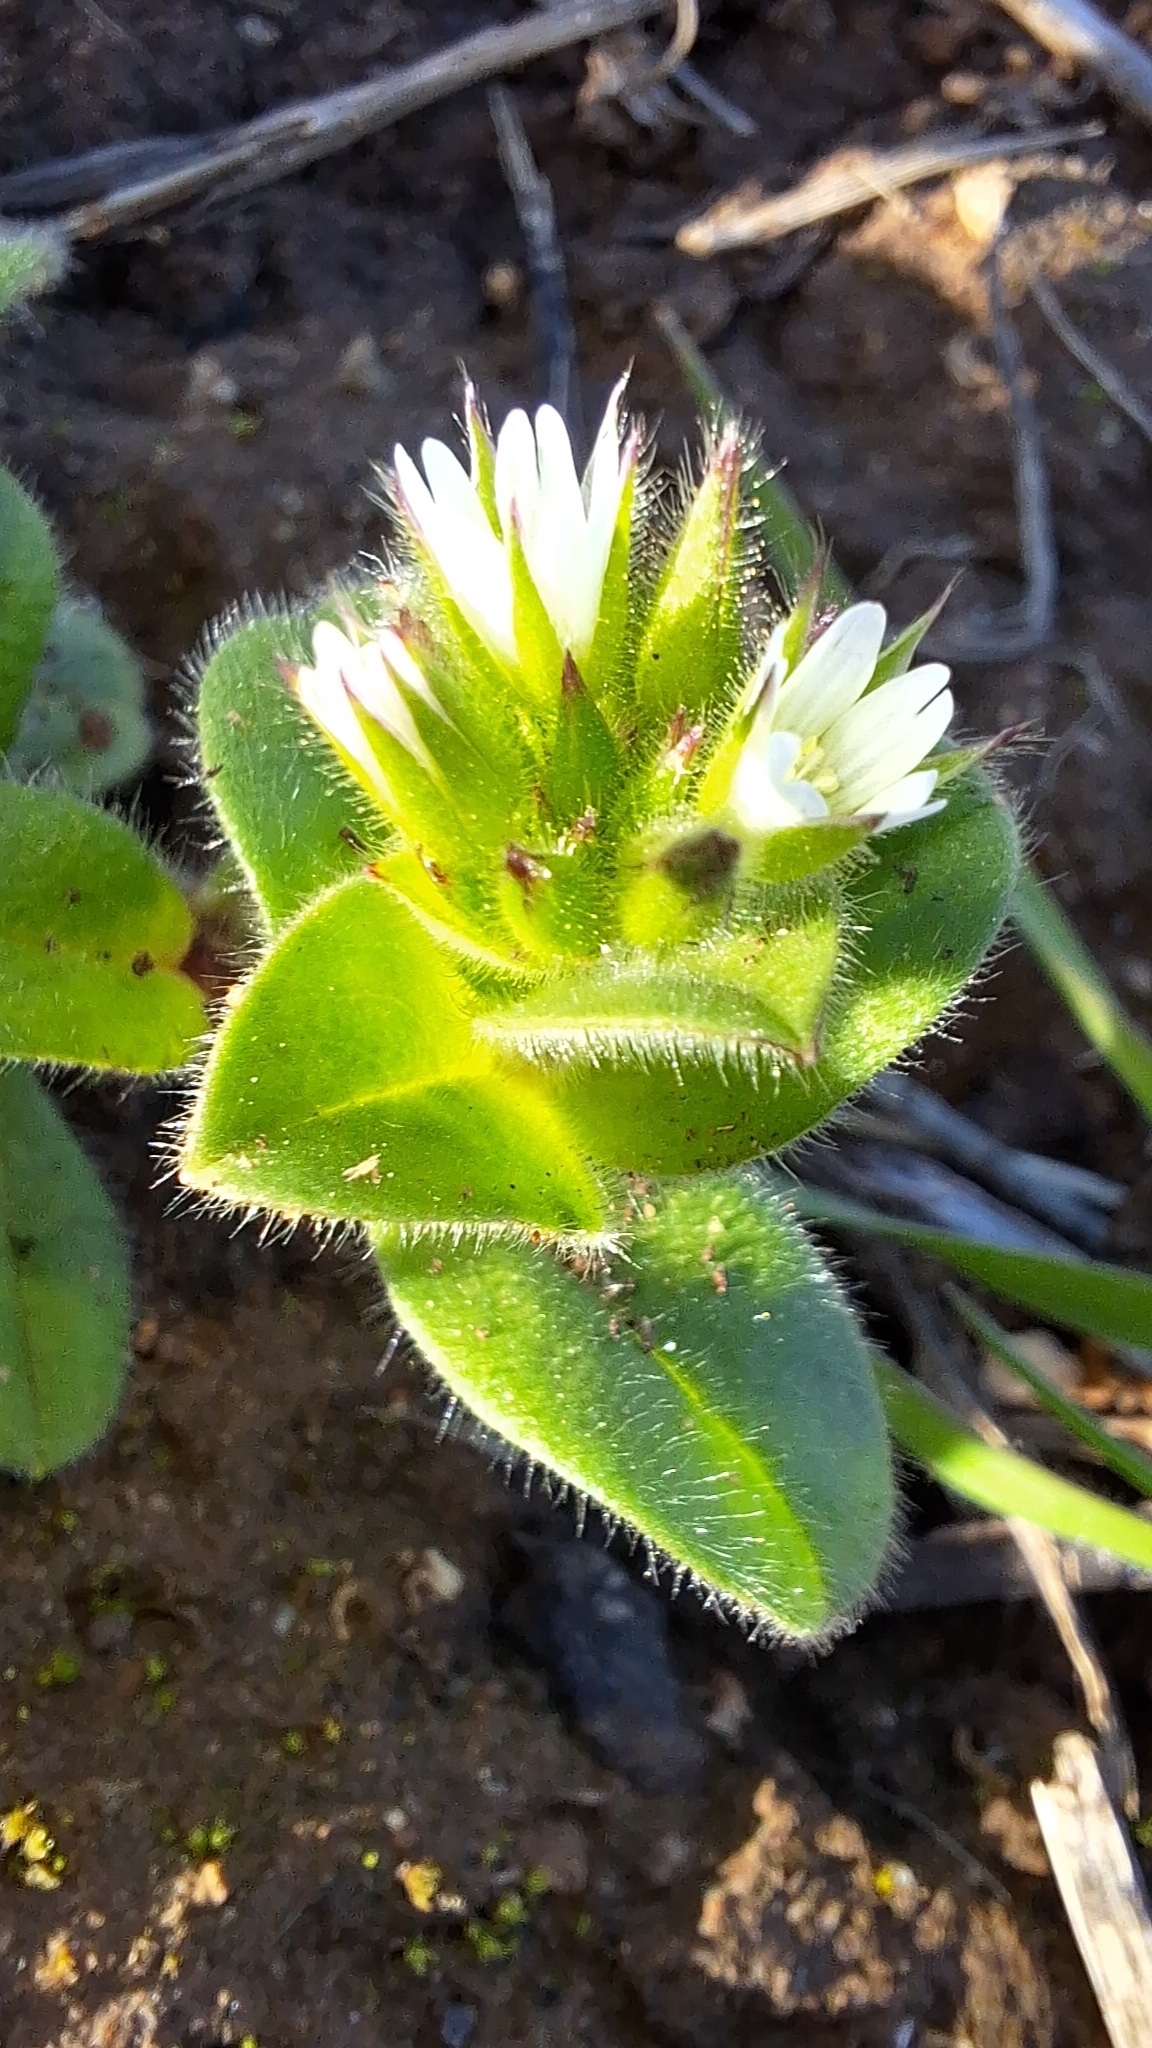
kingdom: Plantae
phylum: Tracheophyta
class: Magnoliopsida
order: Caryophyllales
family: Caryophyllaceae
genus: Cerastium
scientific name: Cerastium glomeratum
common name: Sticky chickweed
